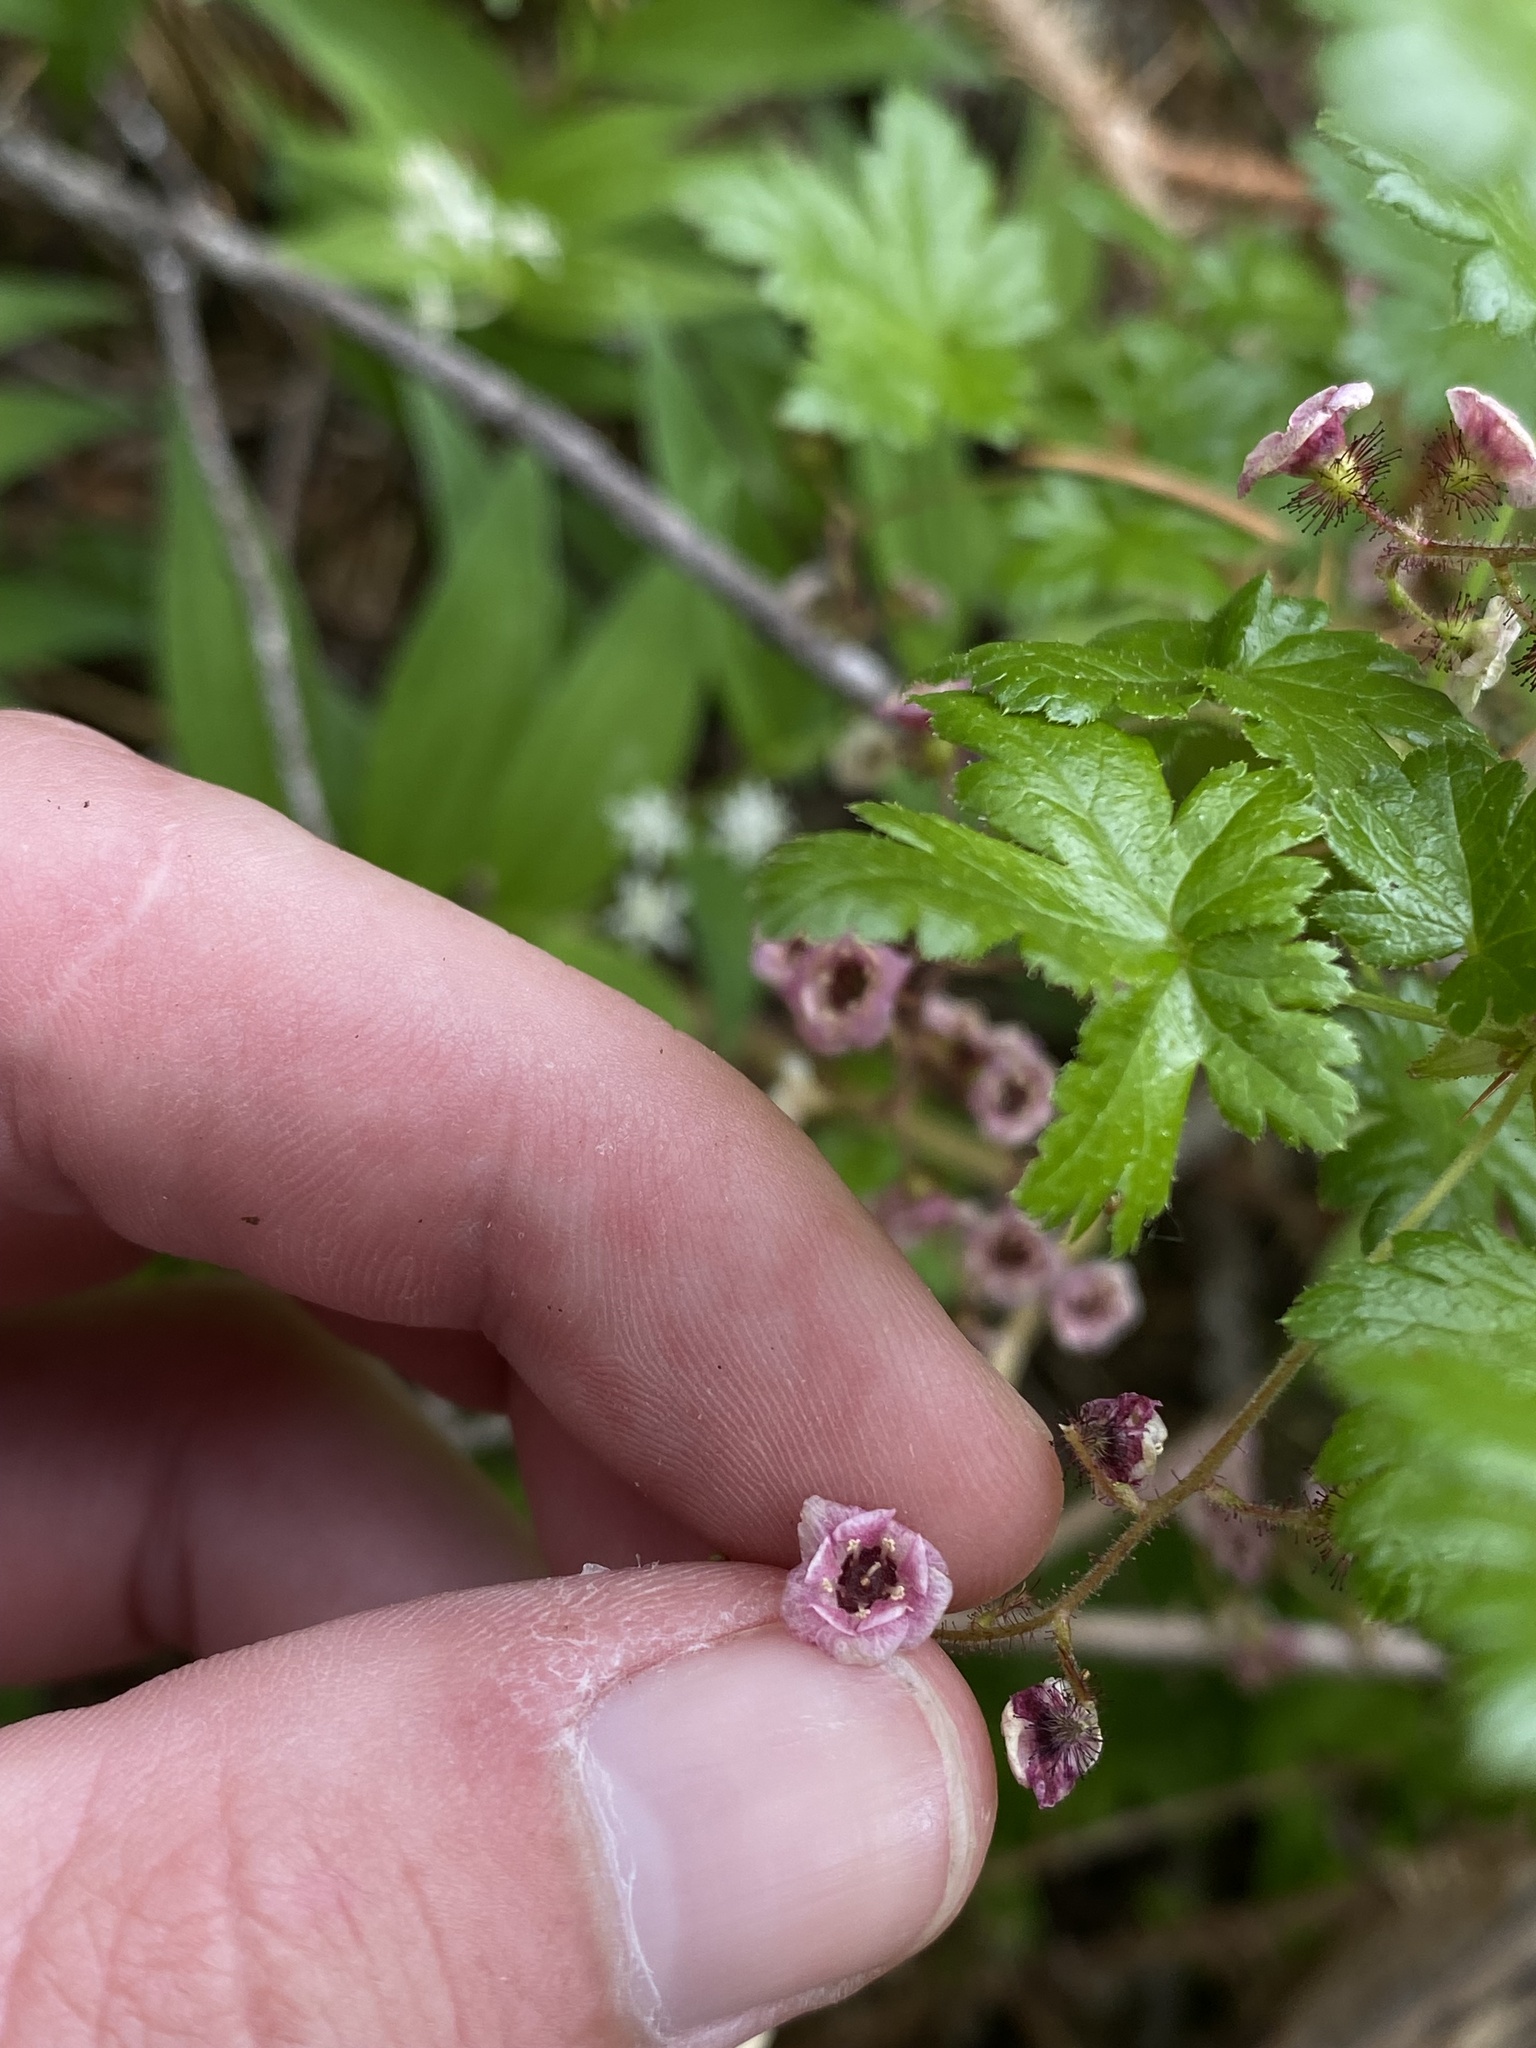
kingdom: Plantae
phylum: Tracheophyta
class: Magnoliopsida
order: Saxifragales
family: Grossulariaceae
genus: Ribes
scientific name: Ribes lacustre
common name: Black gooseberry
